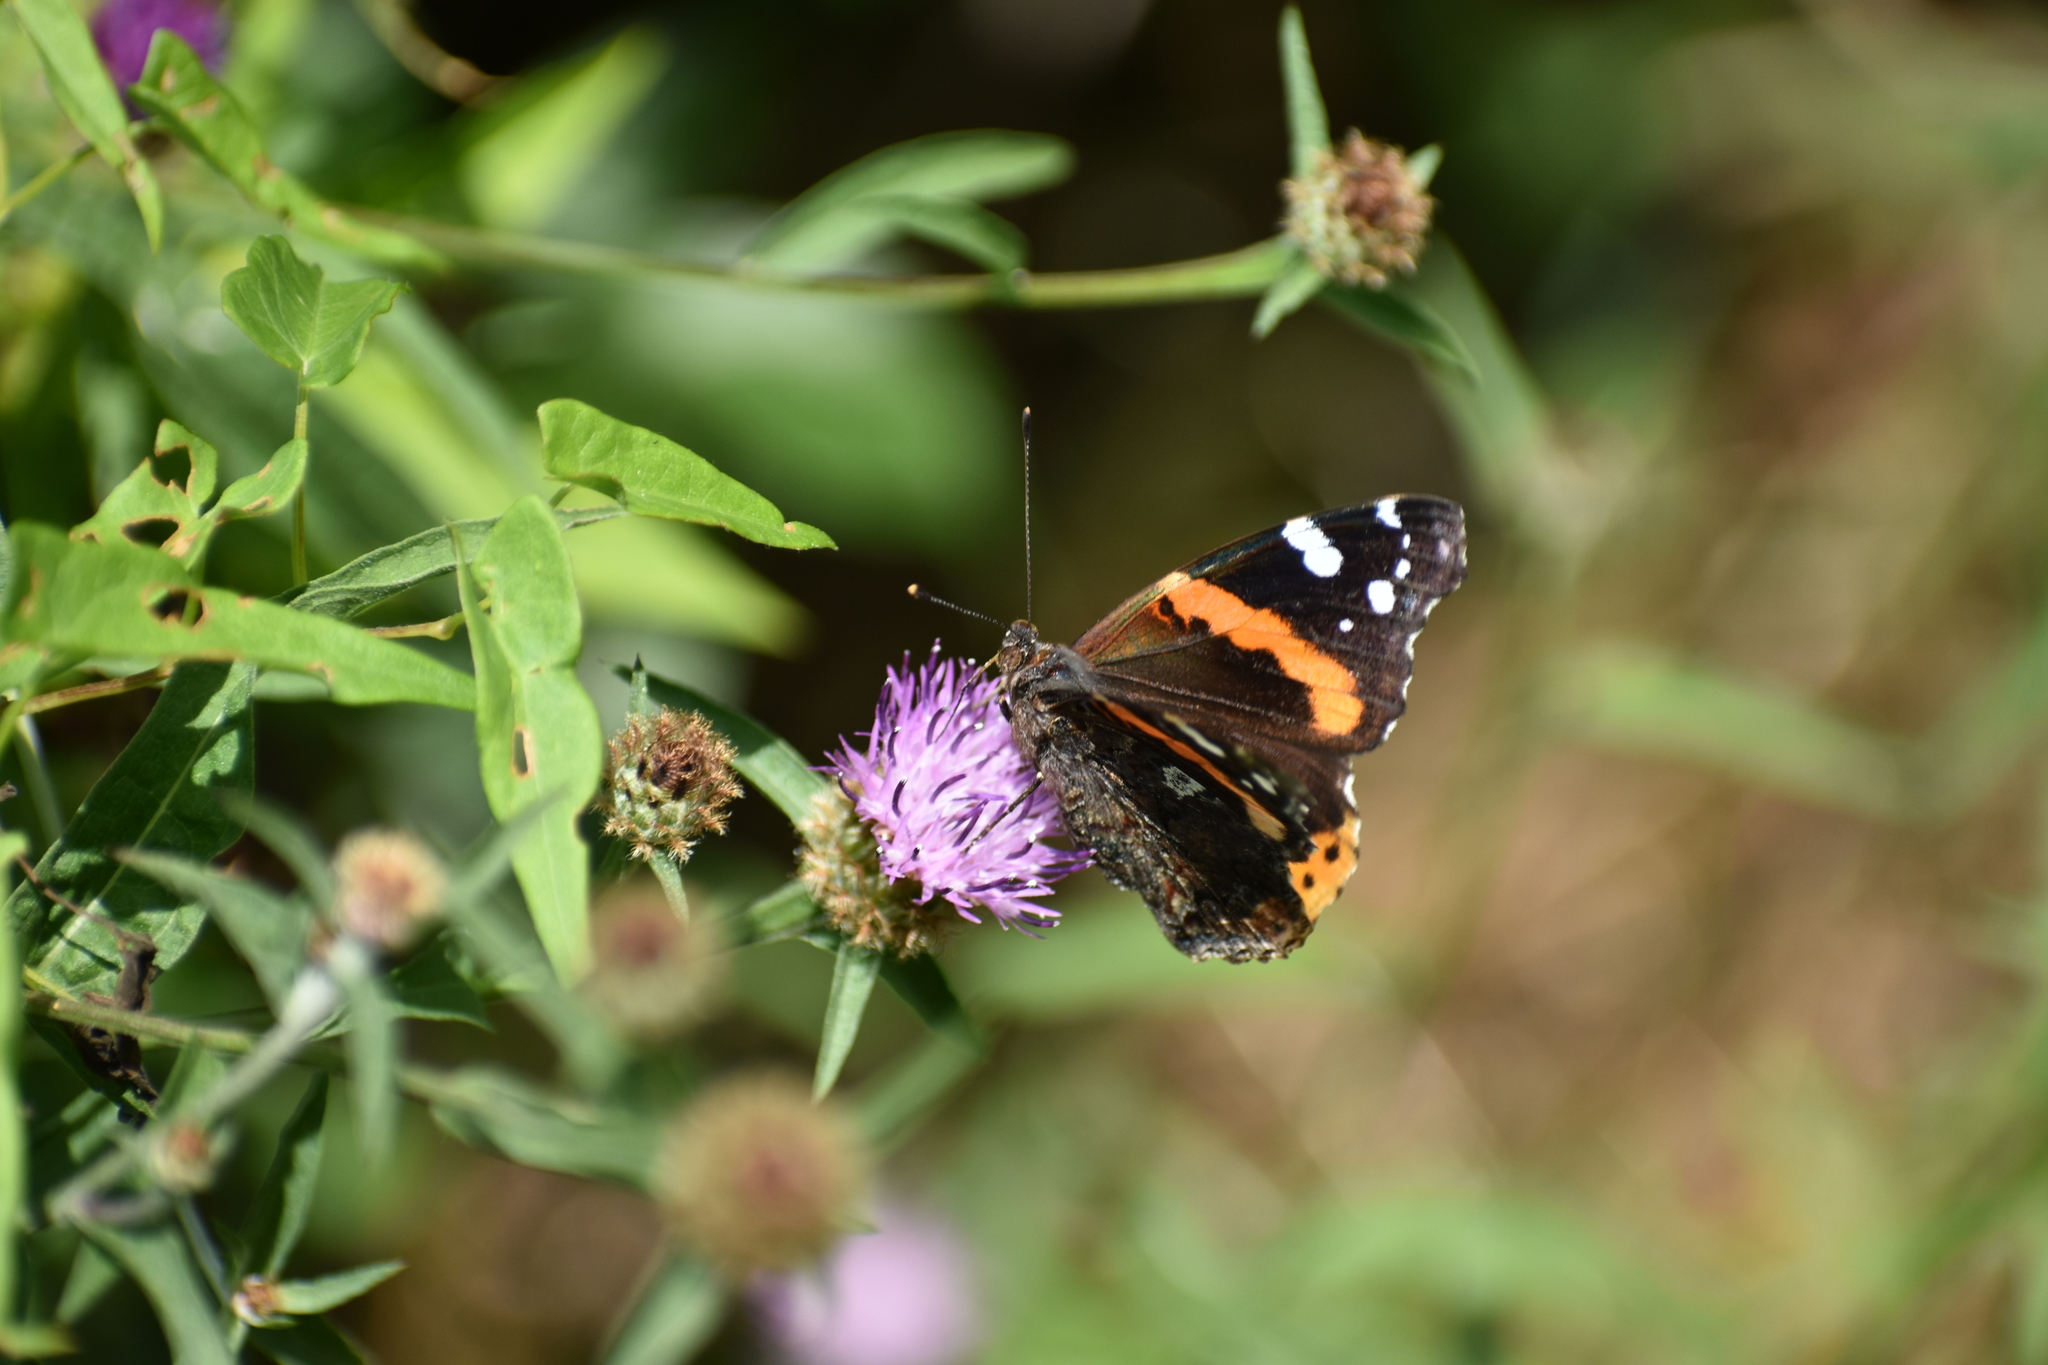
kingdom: Animalia
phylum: Arthropoda
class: Insecta
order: Lepidoptera
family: Nymphalidae
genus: Vanessa
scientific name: Vanessa atalanta
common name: Red admiral
